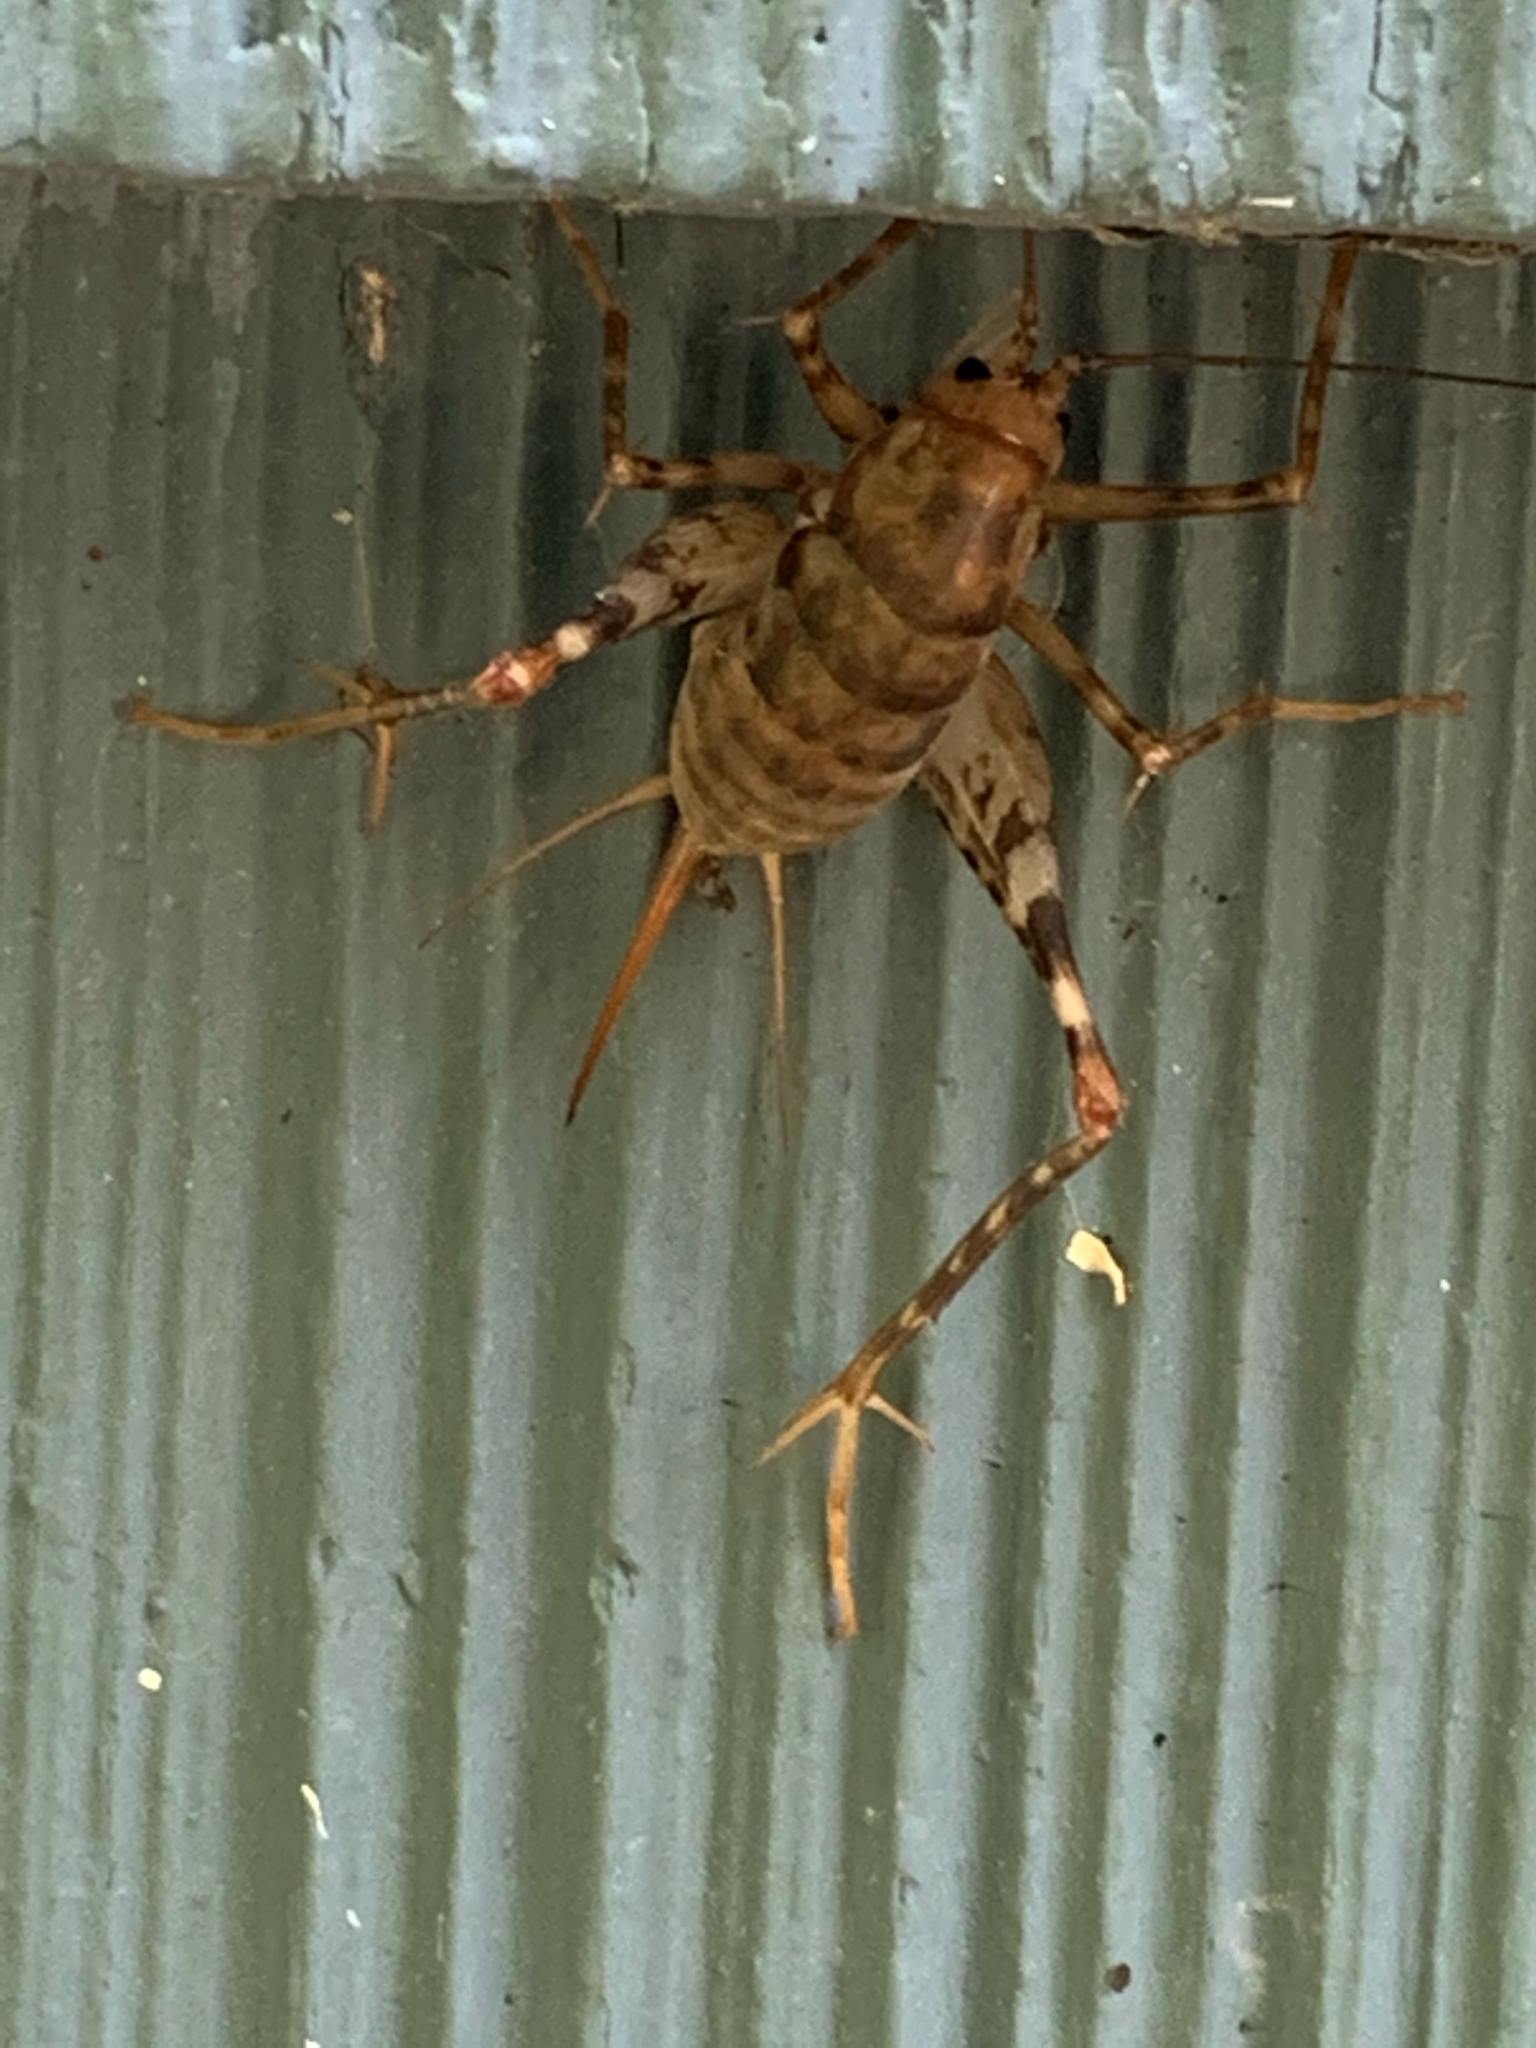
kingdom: Animalia
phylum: Arthropoda
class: Insecta
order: Orthoptera
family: Rhaphidophoridae
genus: Tachycines
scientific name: Tachycines asynamorus
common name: Greenhouse camel cricket
